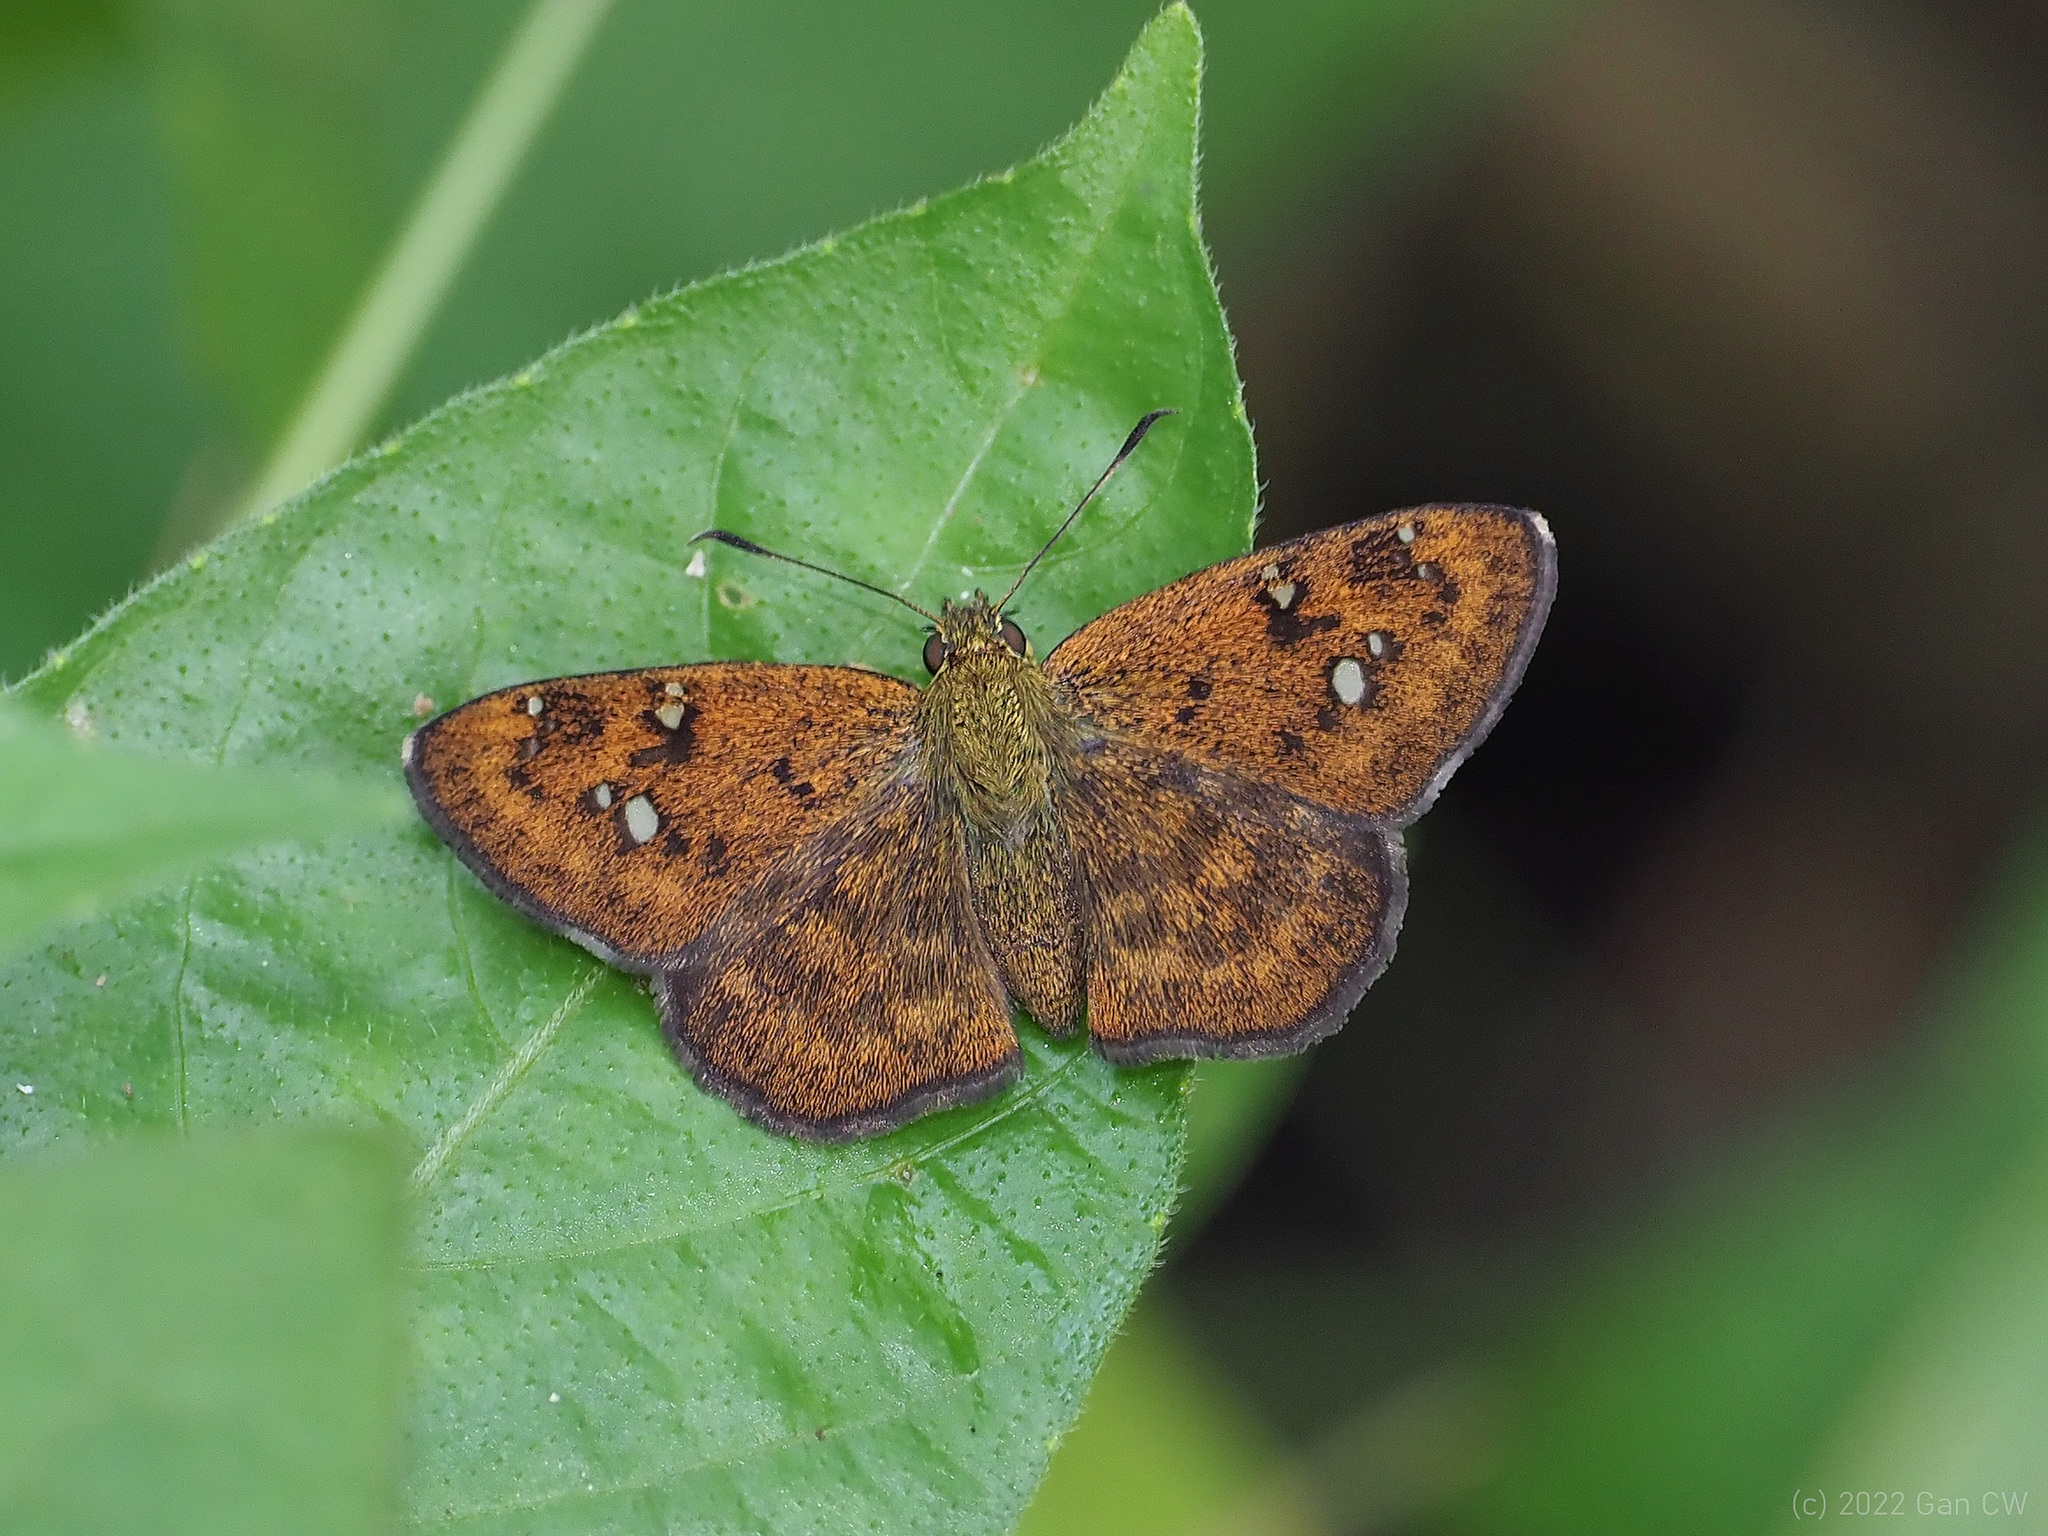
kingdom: Animalia
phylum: Arthropoda
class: Insecta
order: Lepidoptera
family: Hesperiidae
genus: Pseudocoladenia
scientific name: Pseudocoladenia dan
